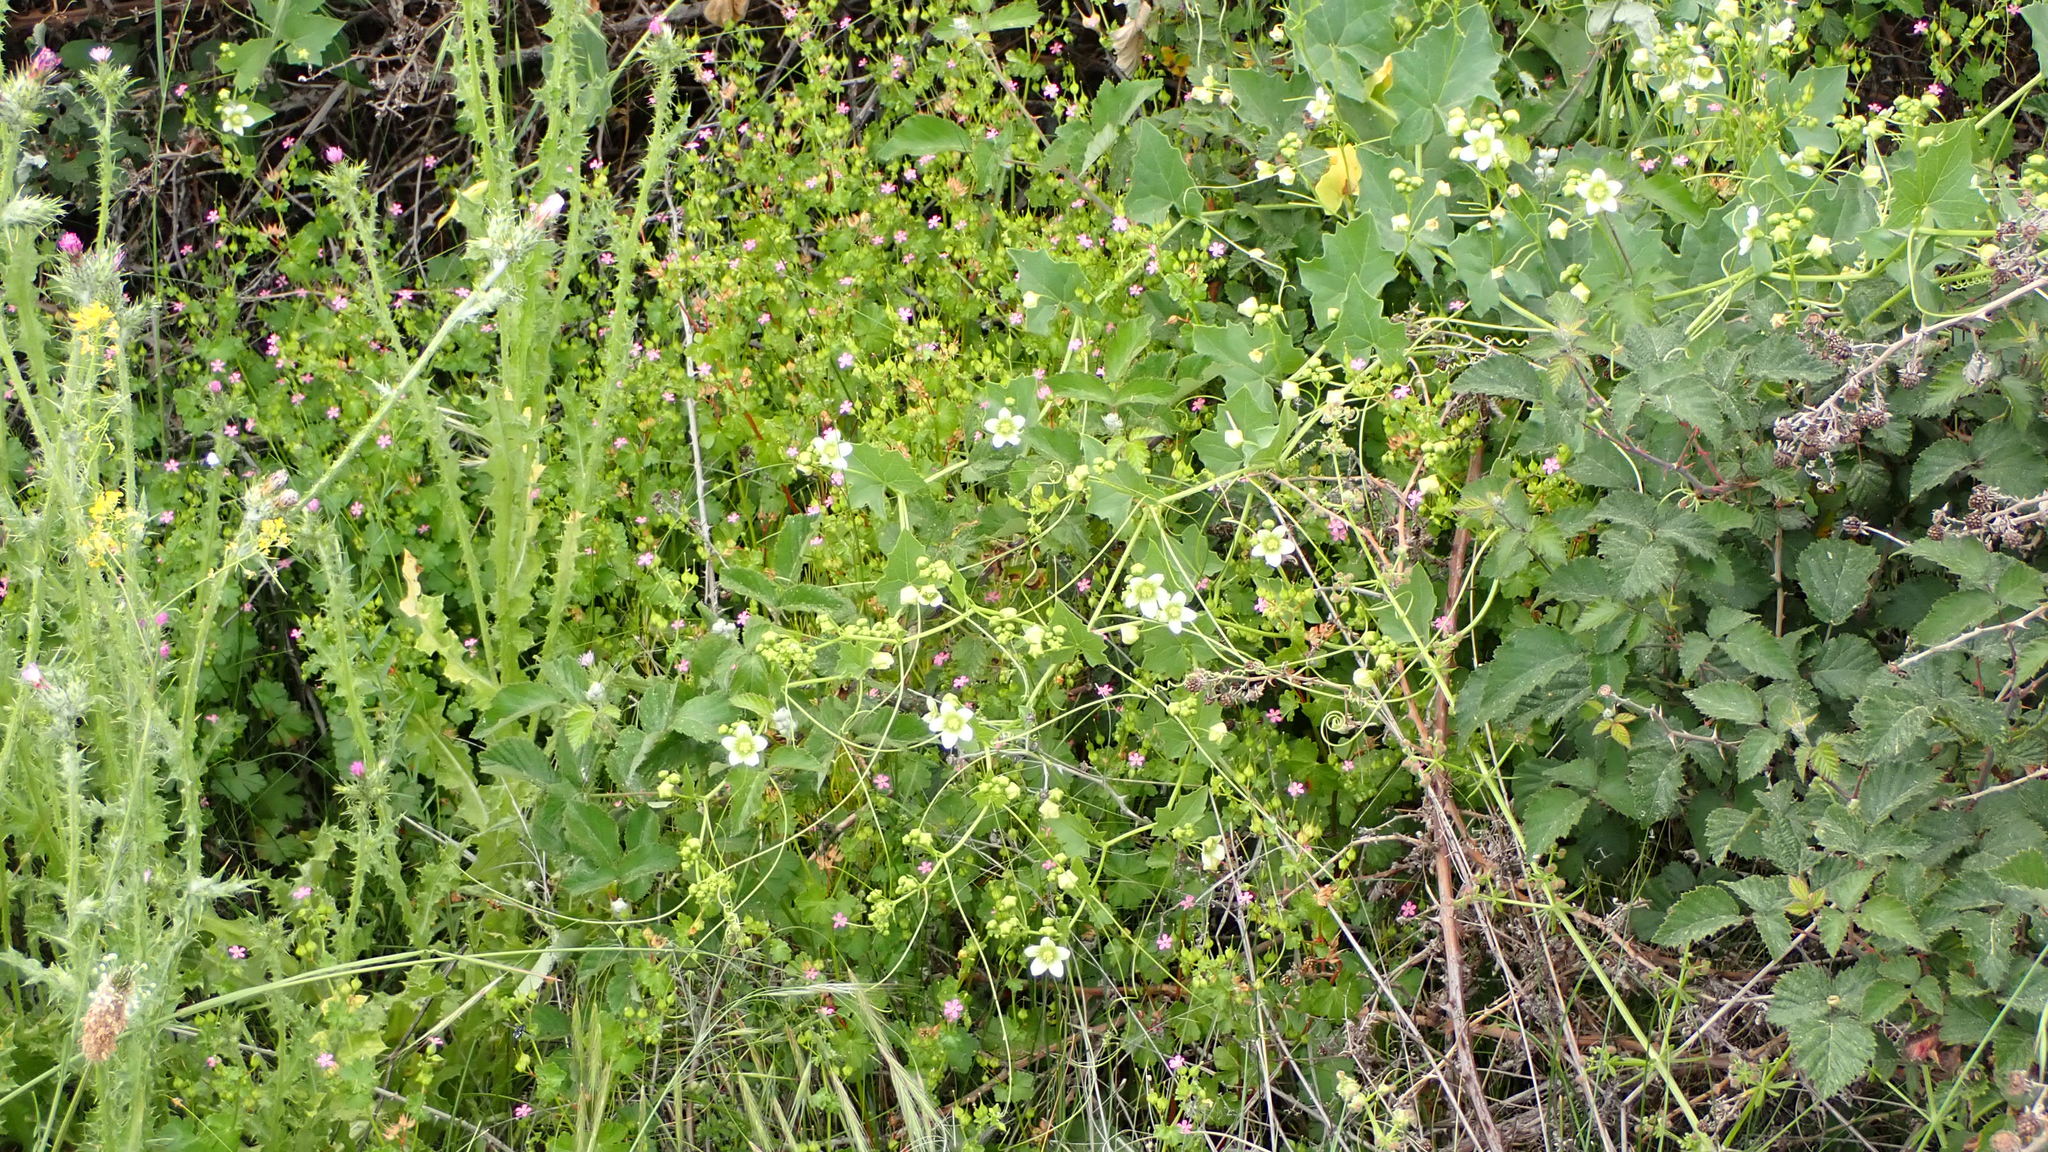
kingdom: Plantae
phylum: Tracheophyta
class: Magnoliopsida
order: Cucurbitales
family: Cucurbitaceae
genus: Bryonia
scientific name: Bryonia dioica
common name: White bryony
